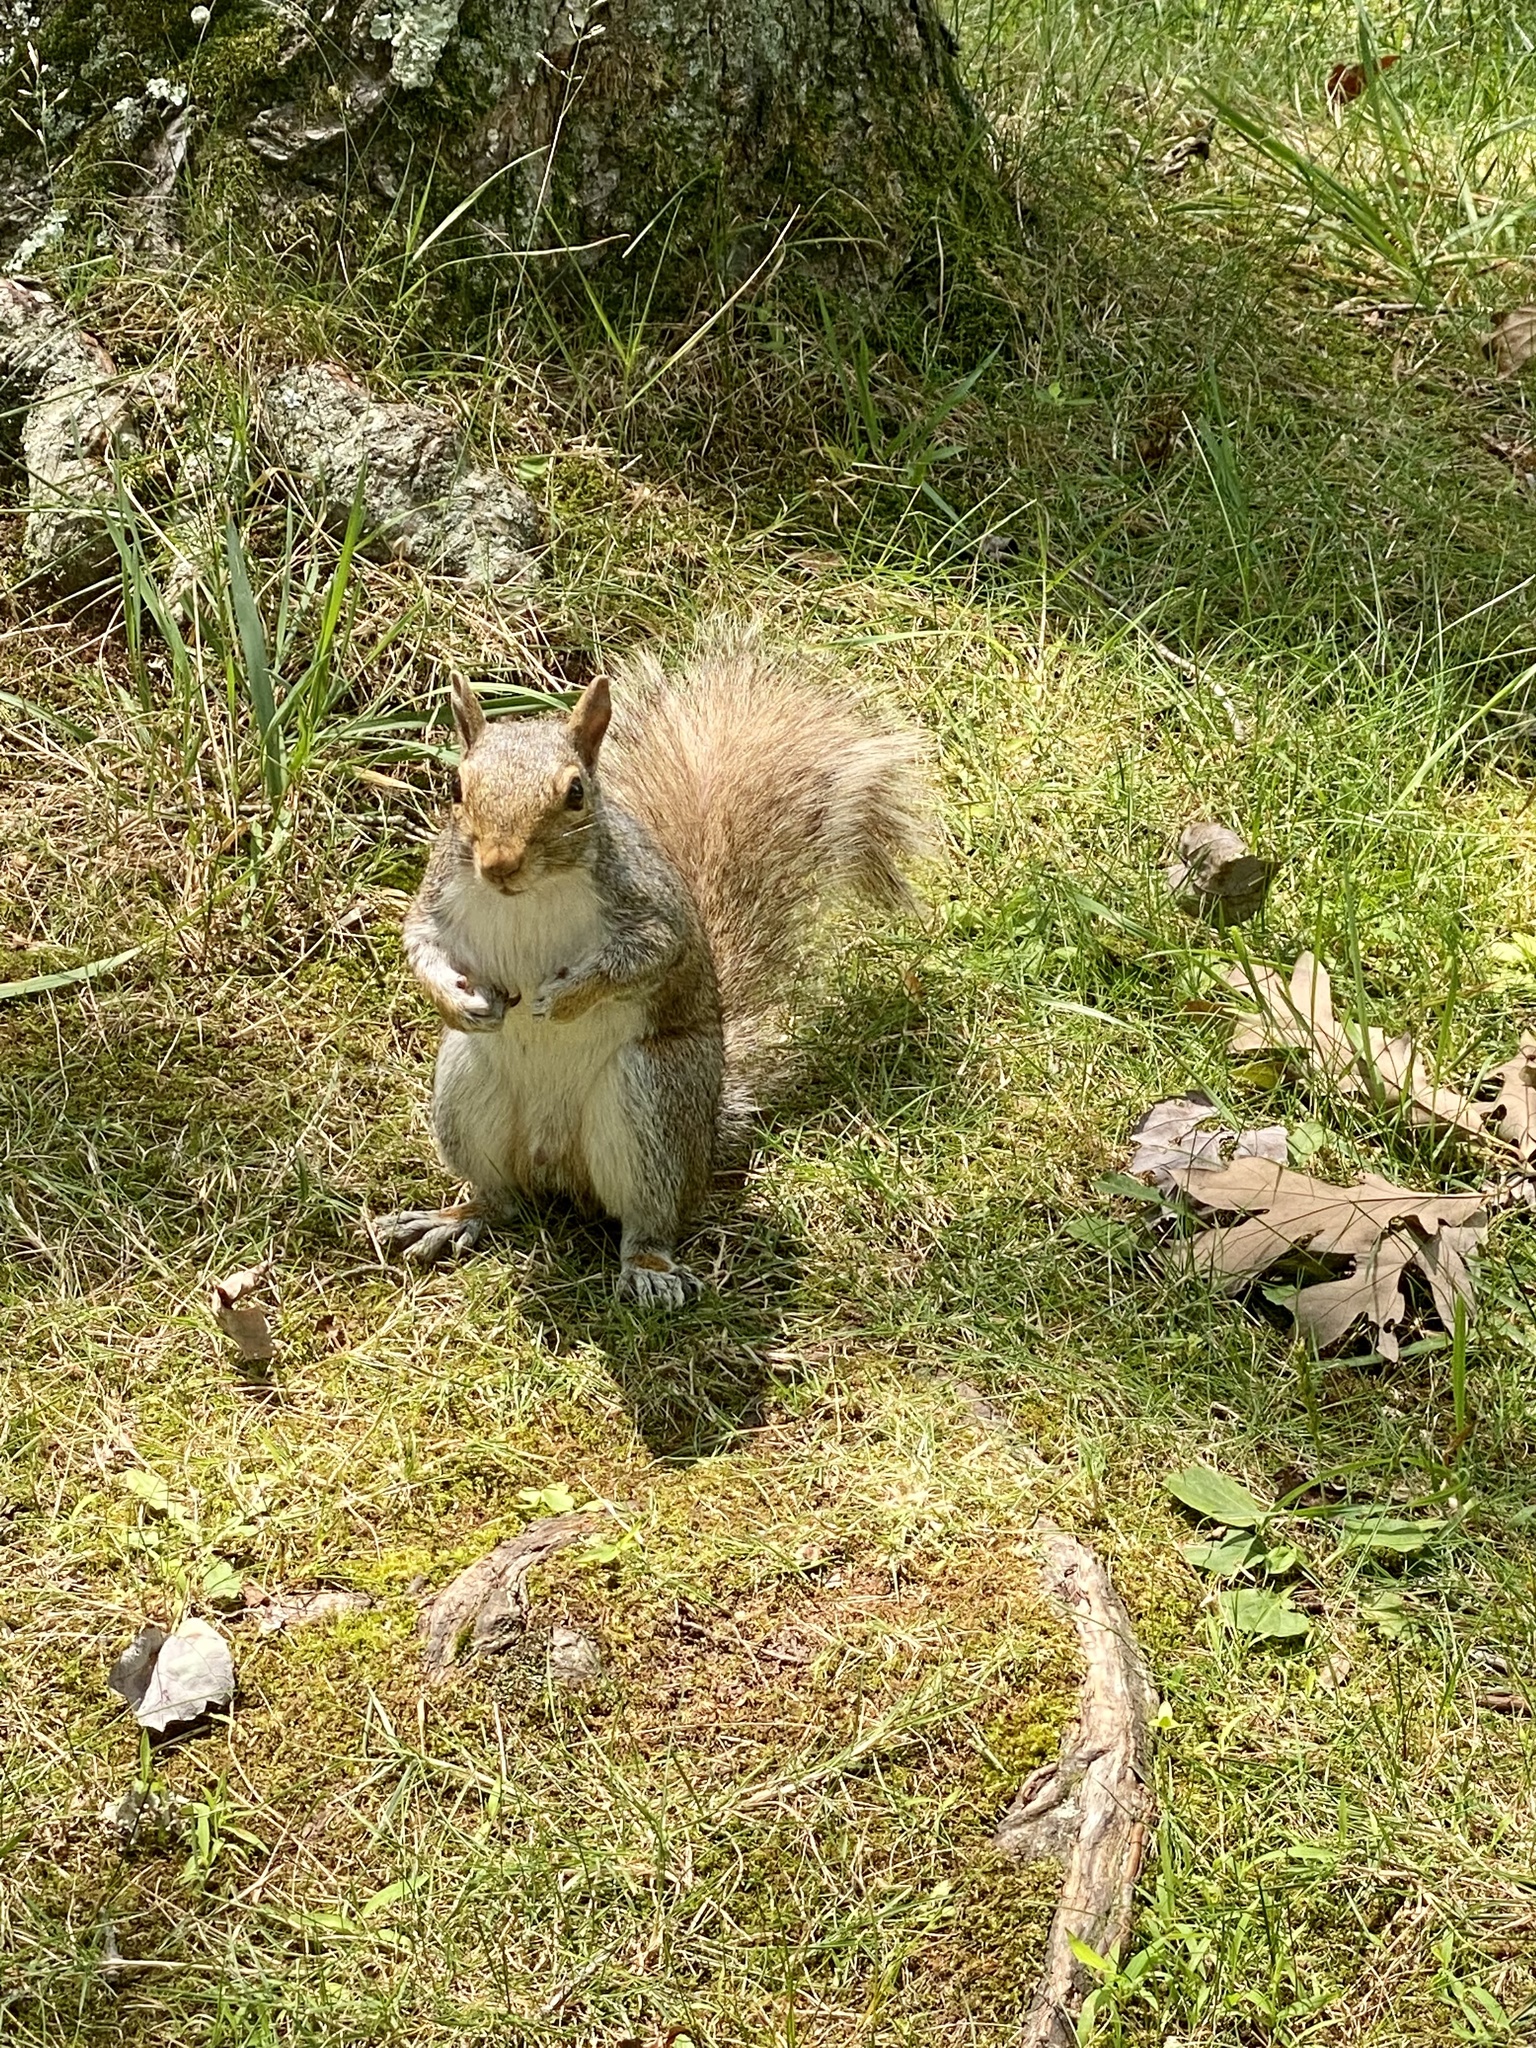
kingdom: Animalia
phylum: Chordata
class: Mammalia
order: Rodentia
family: Sciuridae
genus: Sciurus
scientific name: Sciurus carolinensis
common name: Eastern gray squirrel
